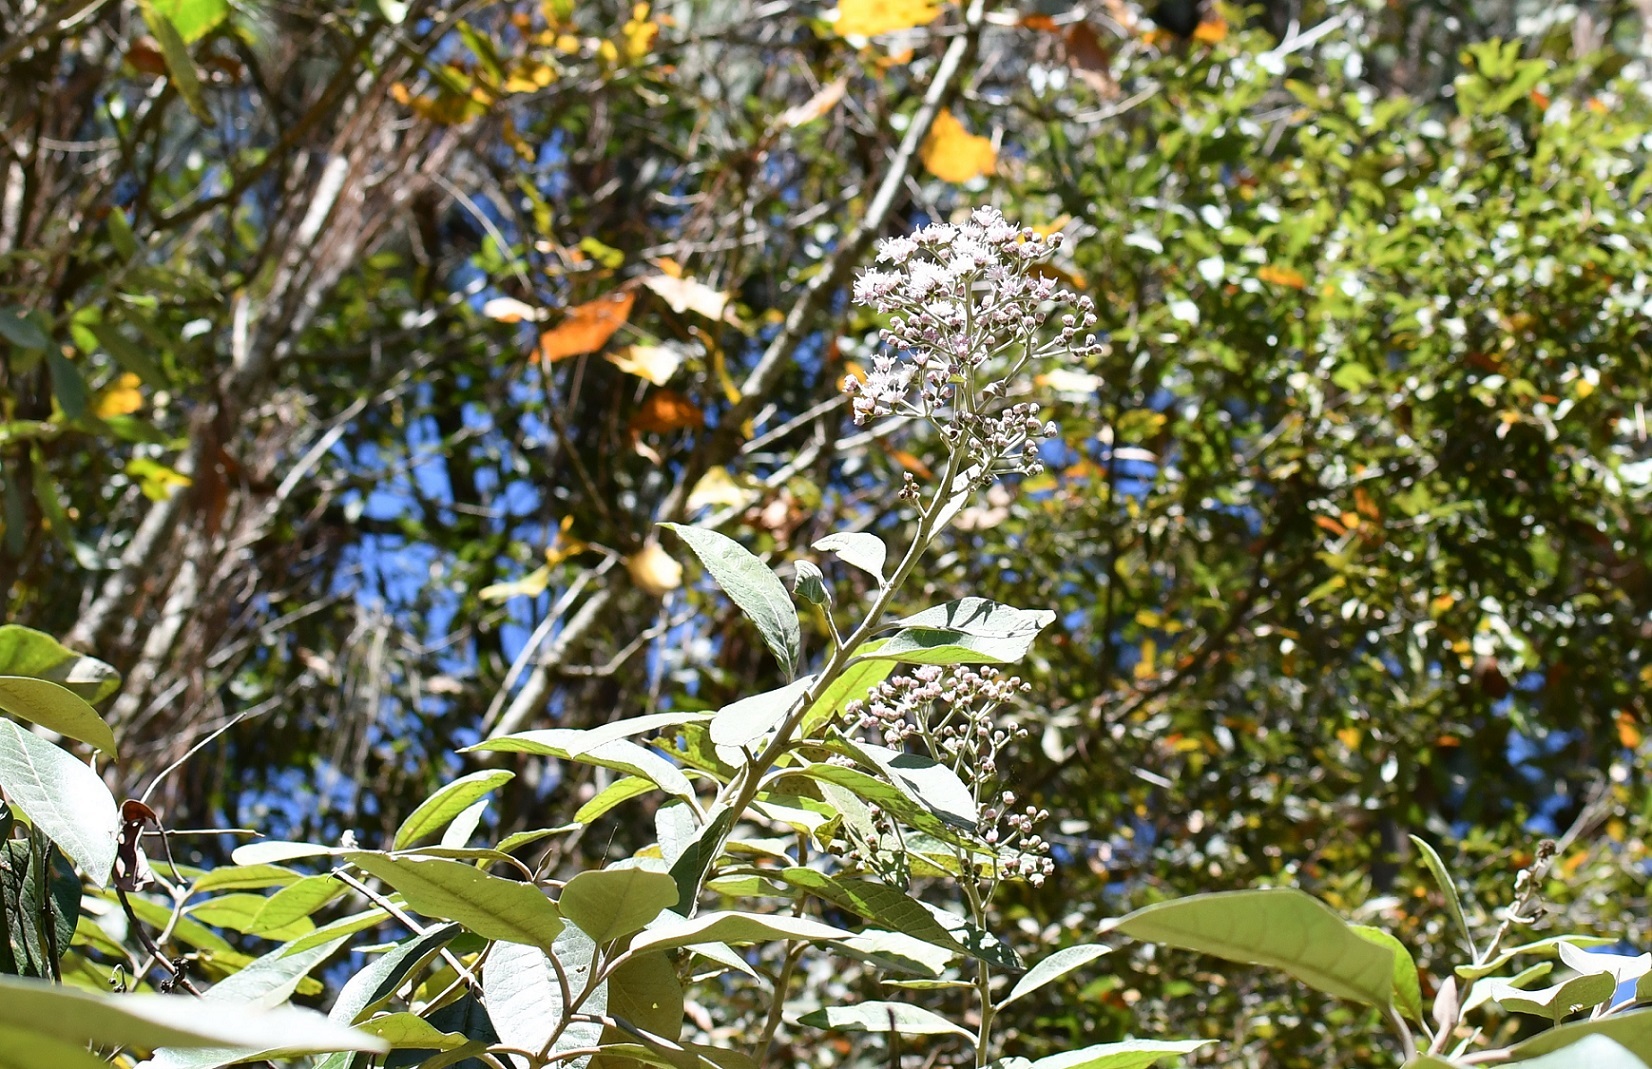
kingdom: Plantae
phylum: Tracheophyta
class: Magnoliopsida
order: Asterales
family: Asteraceae
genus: Vernonanthura
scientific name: Vernonanthura patens
